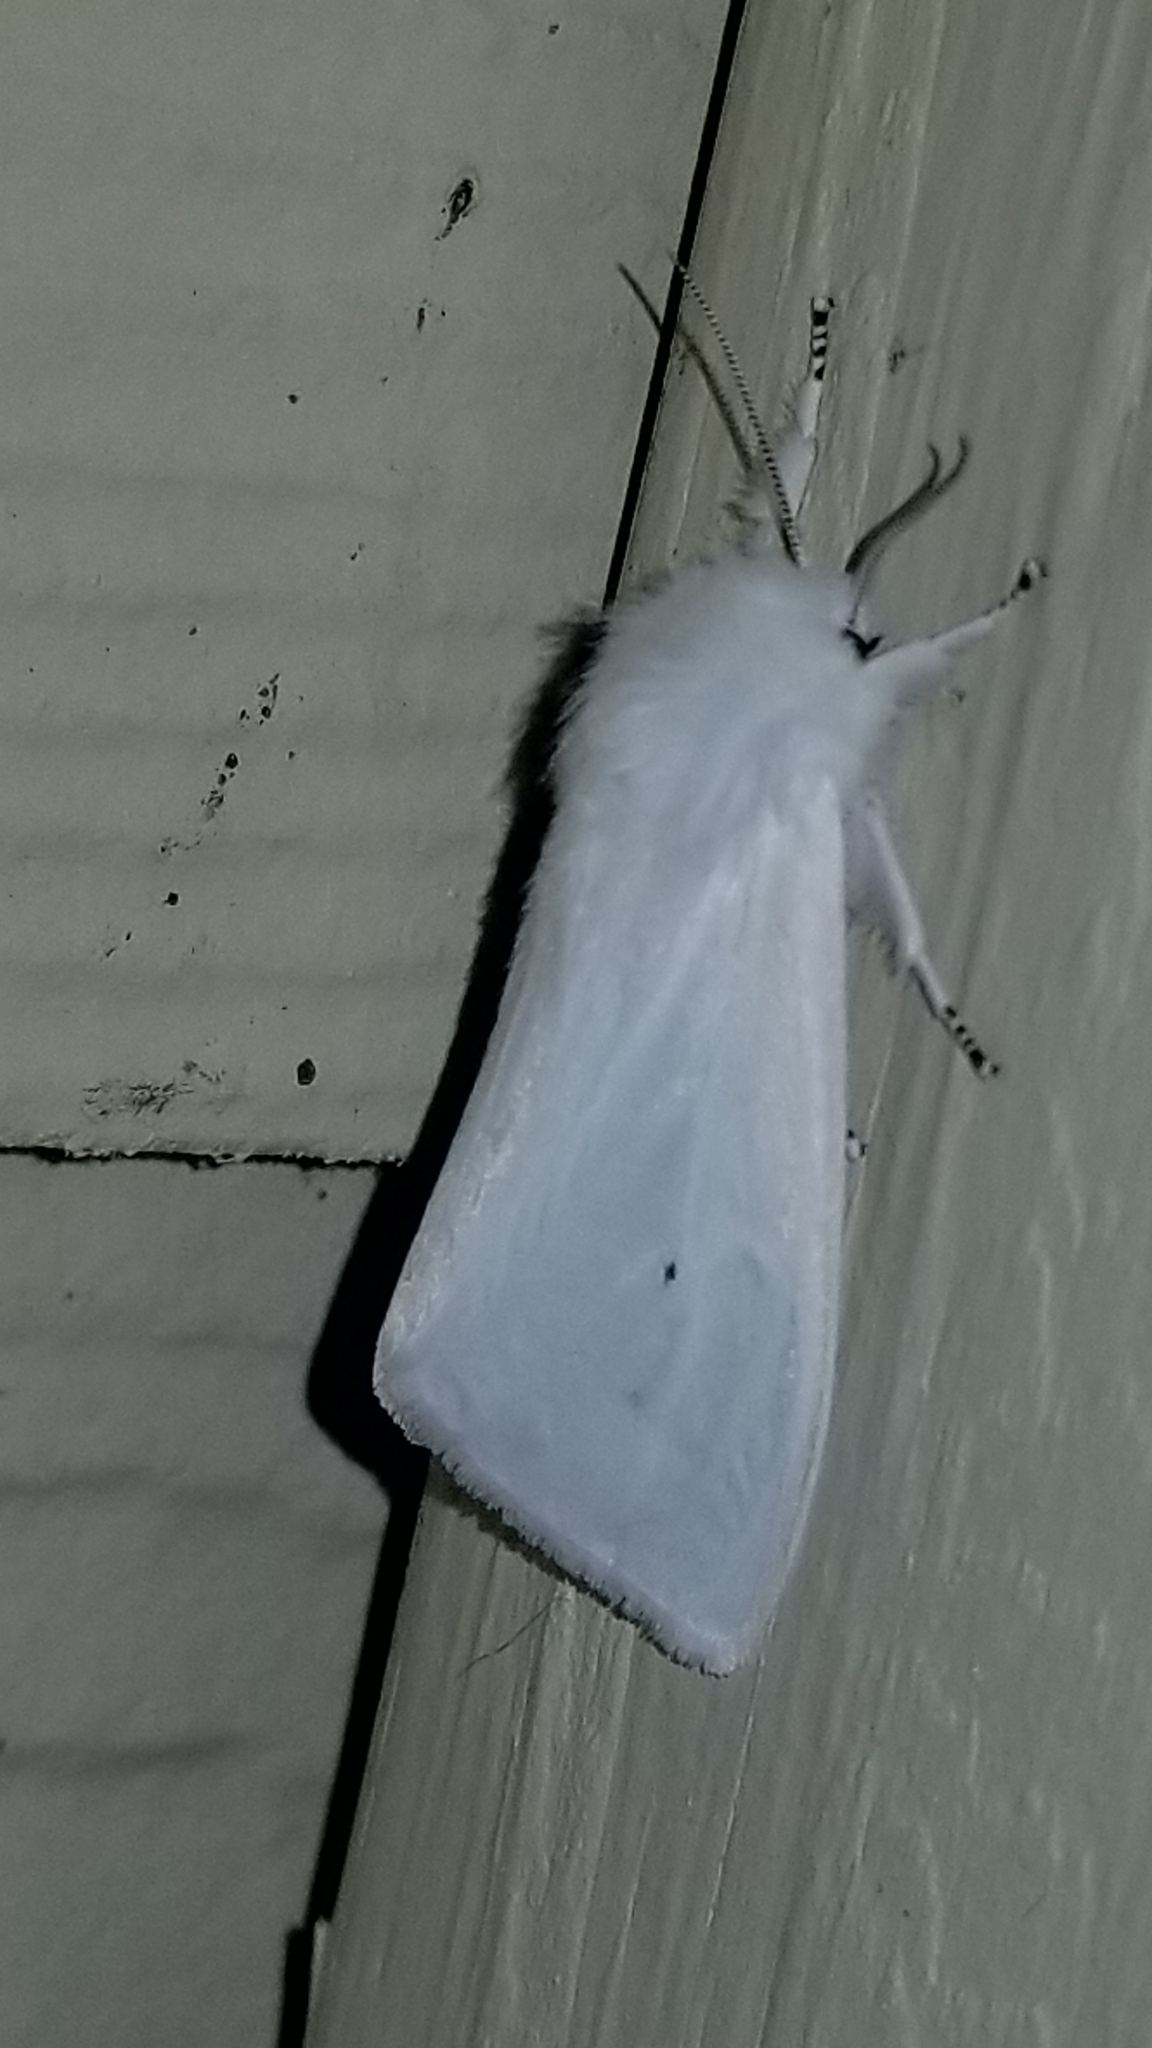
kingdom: Animalia
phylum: Arthropoda
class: Insecta
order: Lepidoptera
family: Erebidae
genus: Spilosoma
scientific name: Spilosoma virginica
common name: Virginia tiger moth
